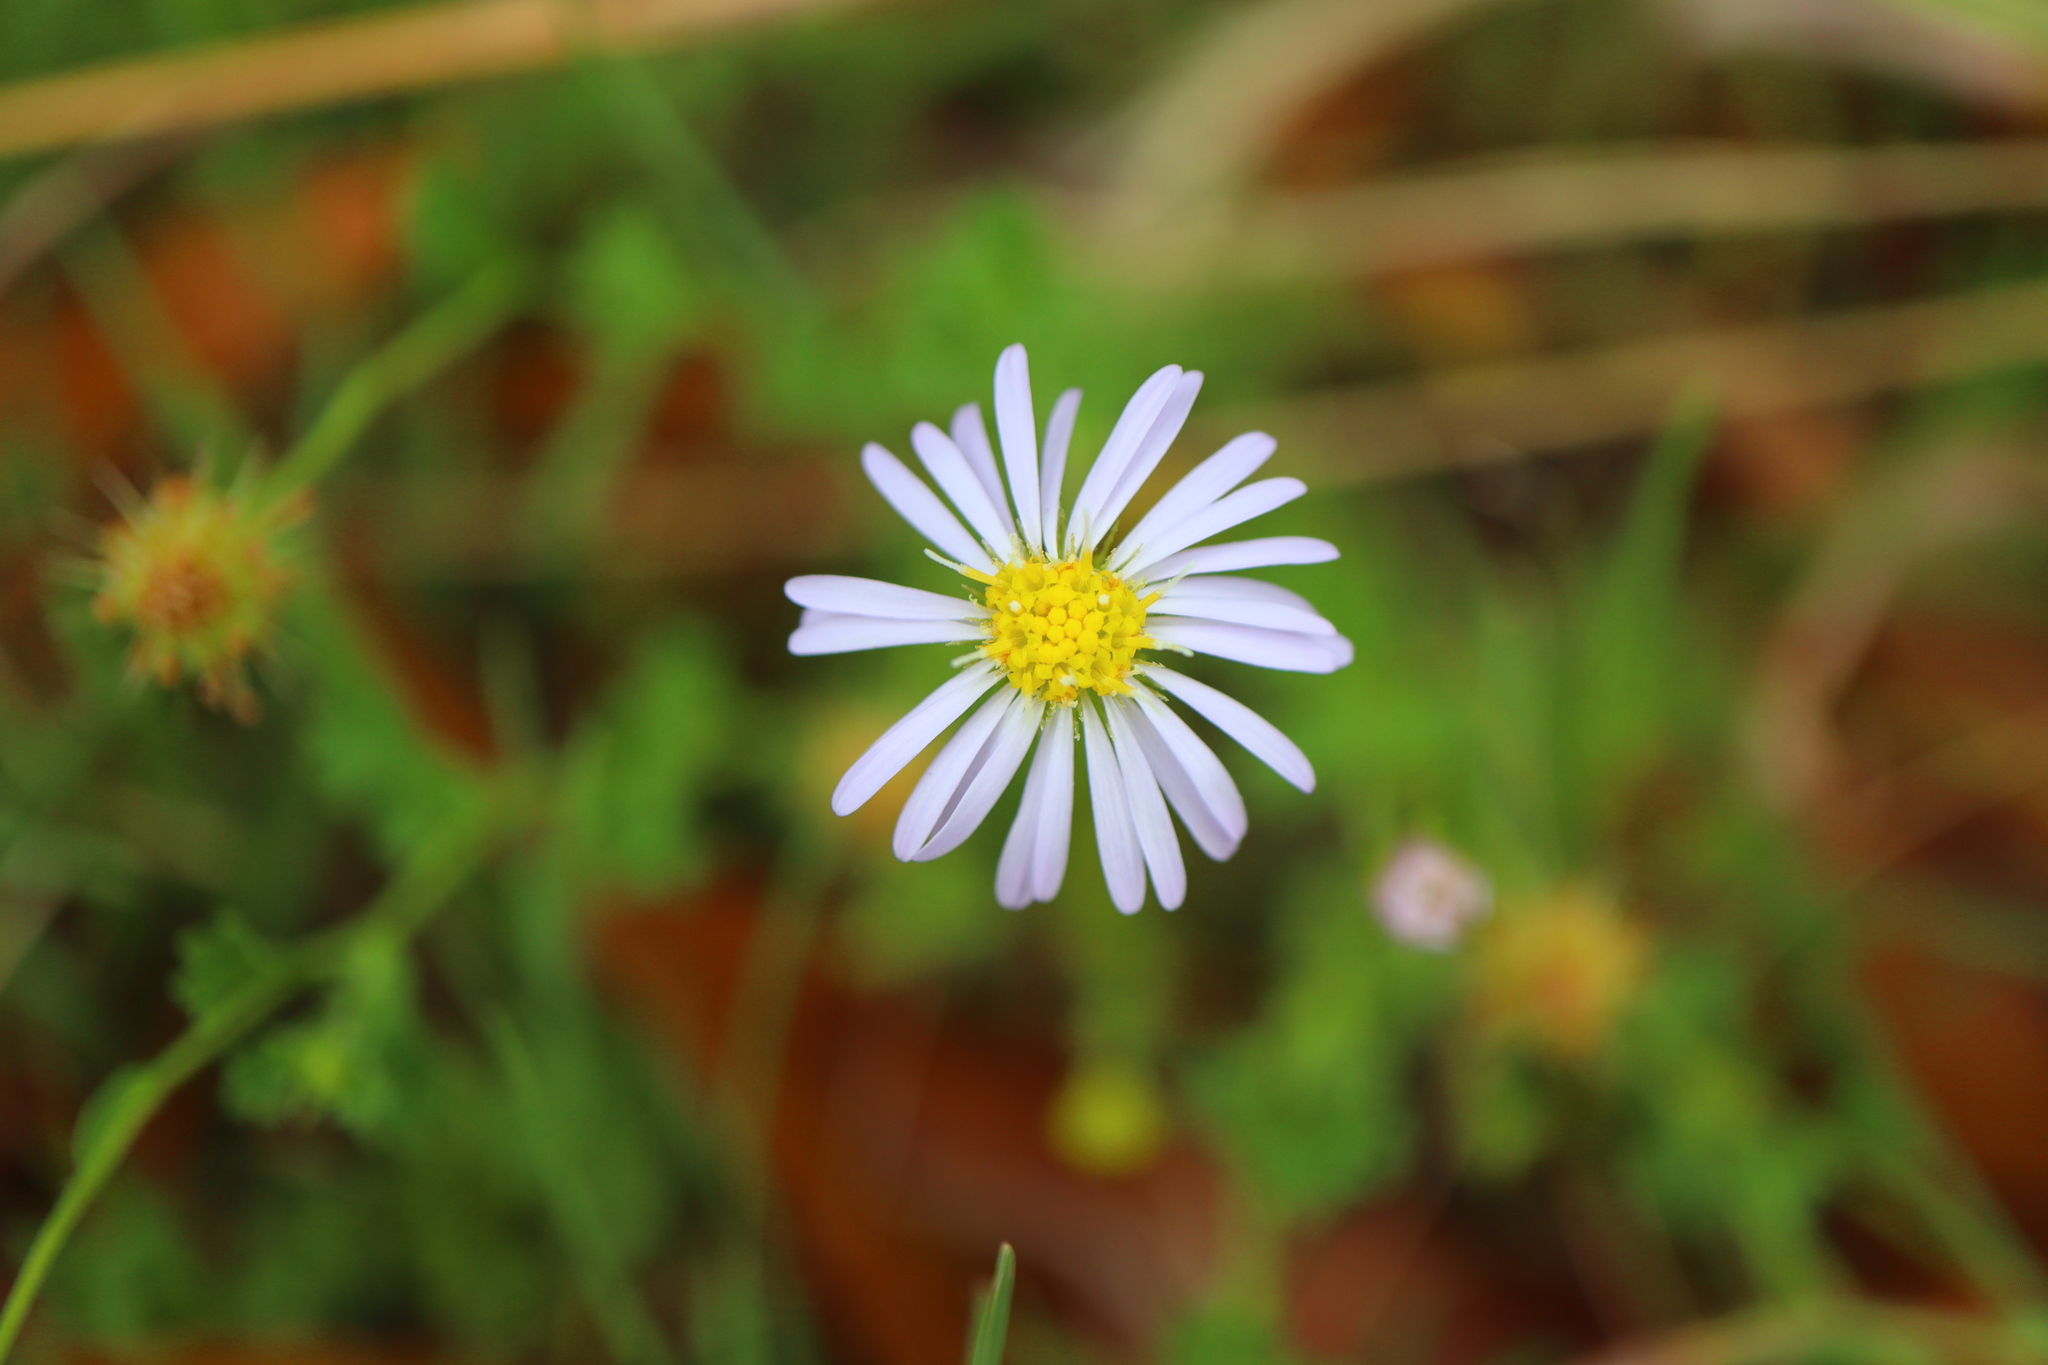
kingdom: Plantae
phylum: Tracheophyta
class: Magnoliopsida
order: Asterales
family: Asteraceae
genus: Calotis
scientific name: Calotis cuneifolia
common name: Bur-daisy
